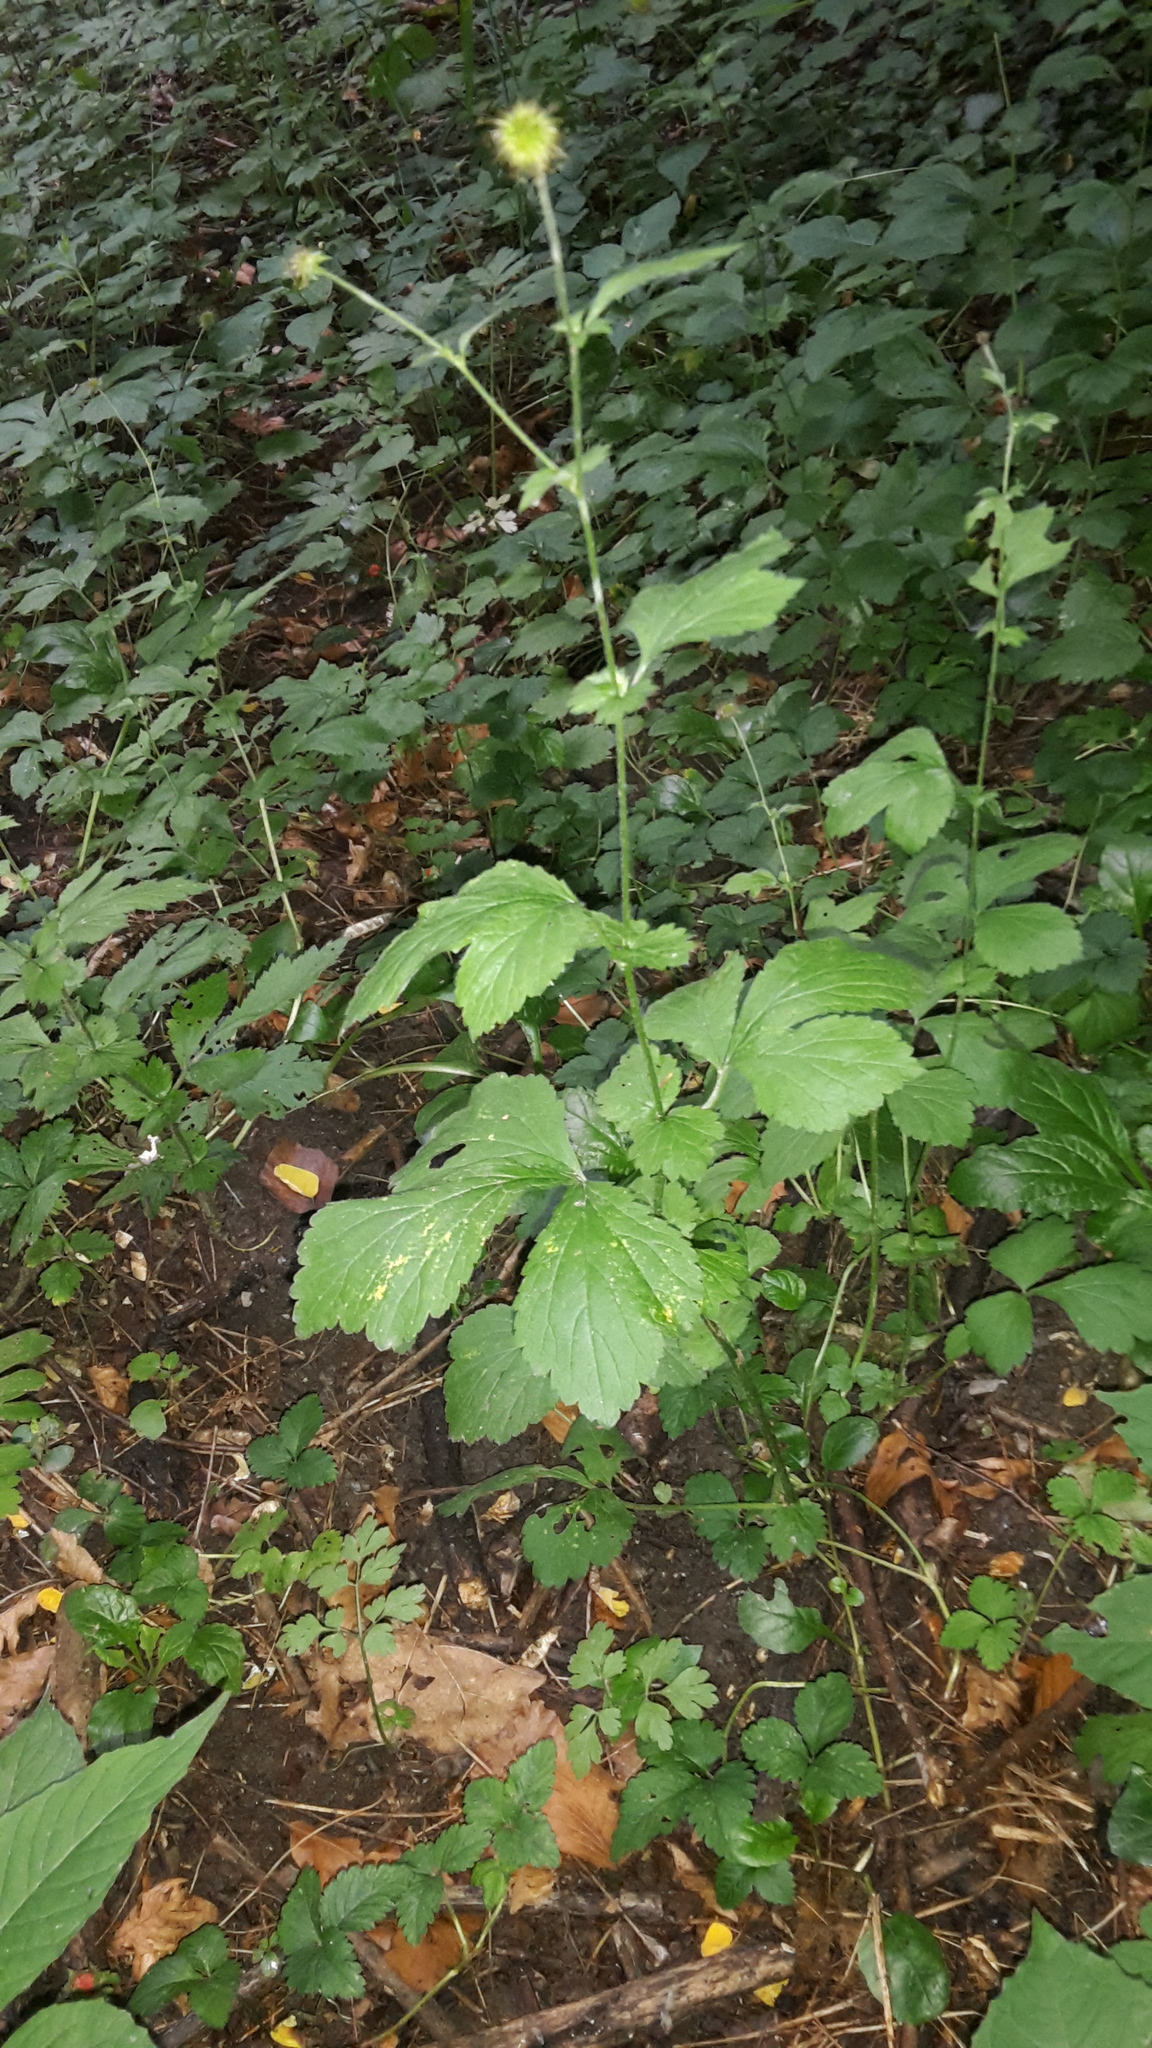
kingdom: Plantae
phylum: Tracheophyta
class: Magnoliopsida
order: Rosales
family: Rosaceae
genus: Geum
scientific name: Geum urbanum
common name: Wood avens
